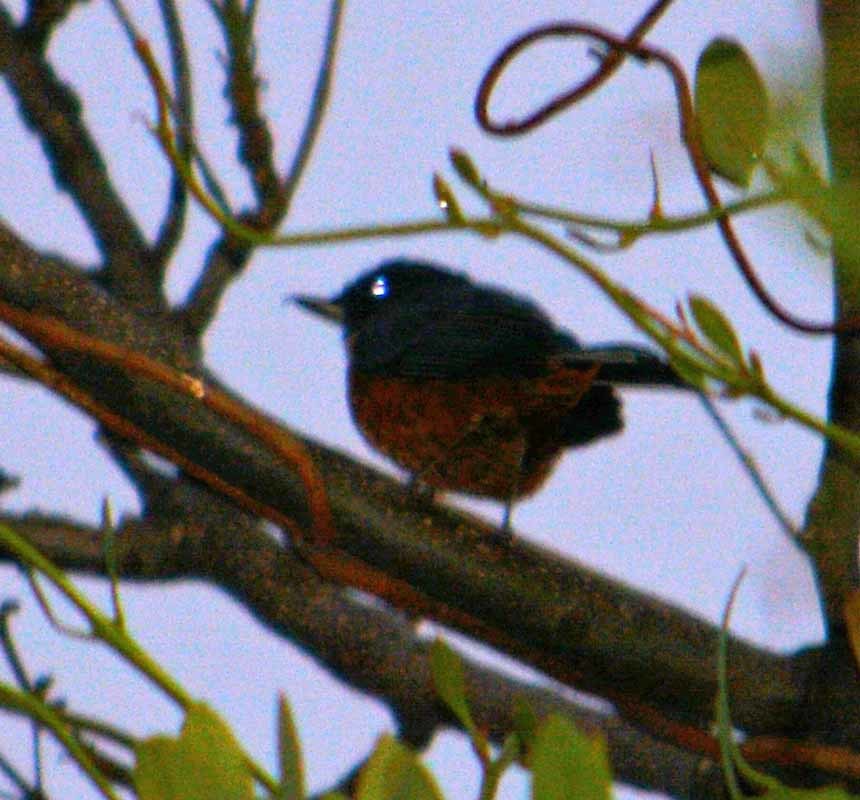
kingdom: Animalia
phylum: Chordata
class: Aves
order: Passeriformes
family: Thraupidae
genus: Diglossa
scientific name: Diglossa baritula
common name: Cinnamon-bellied flowerpiercer
